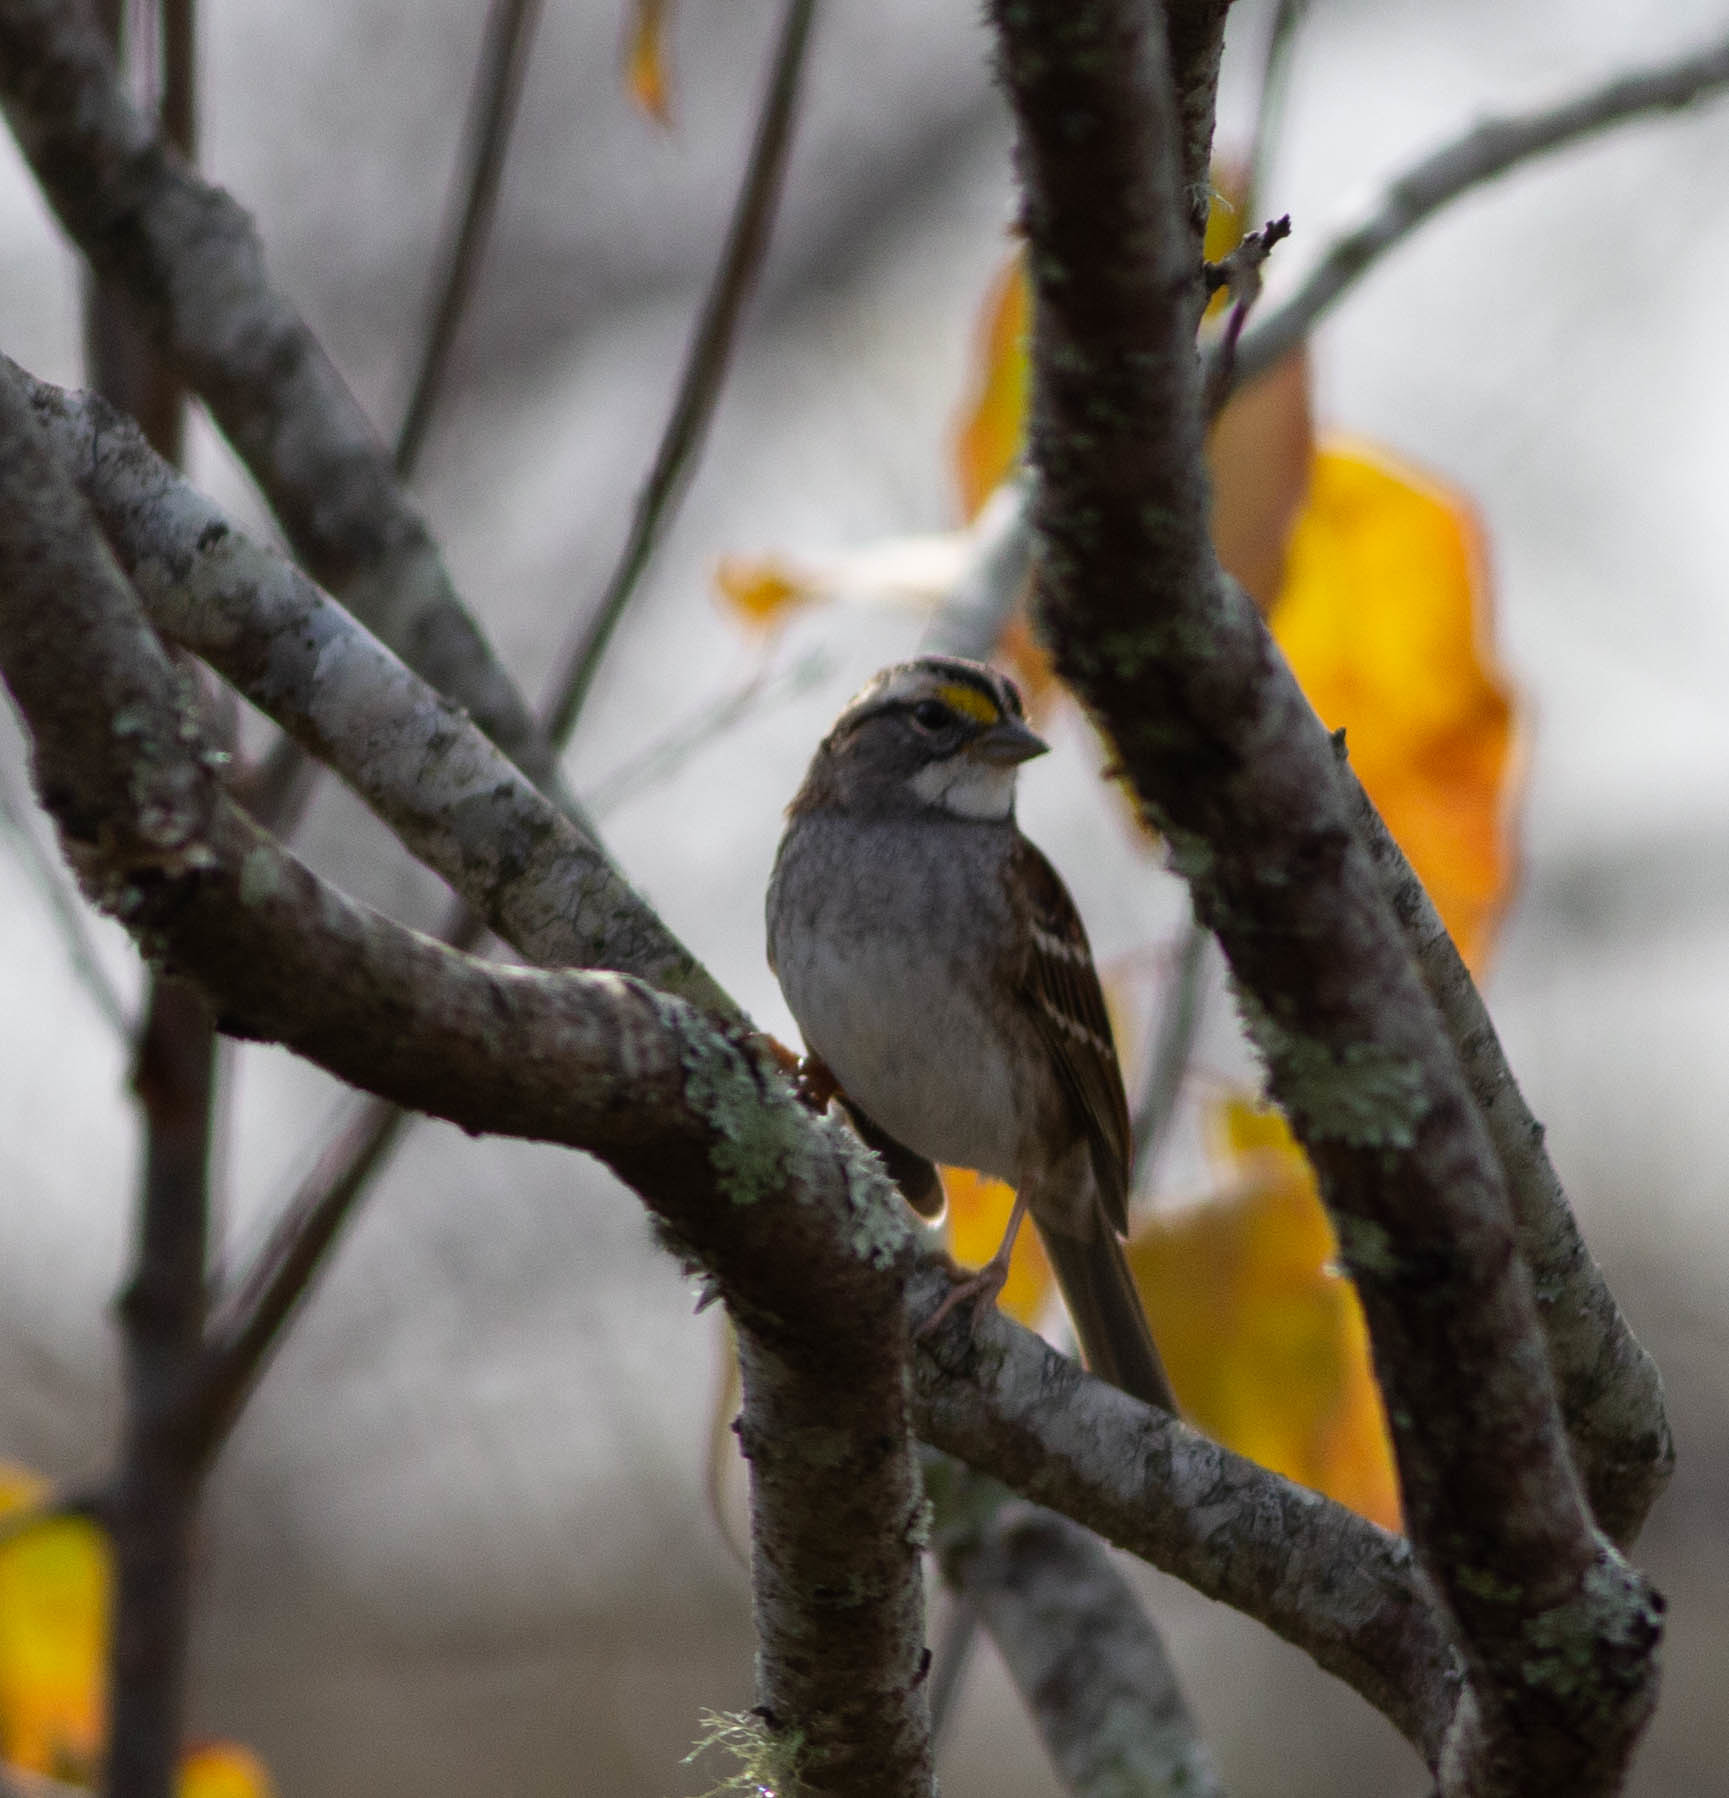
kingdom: Animalia
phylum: Chordata
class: Aves
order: Passeriformes
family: Passerellidae
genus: Zonotrichia
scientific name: Zonotrichia albicollis
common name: White-throated sparrow
